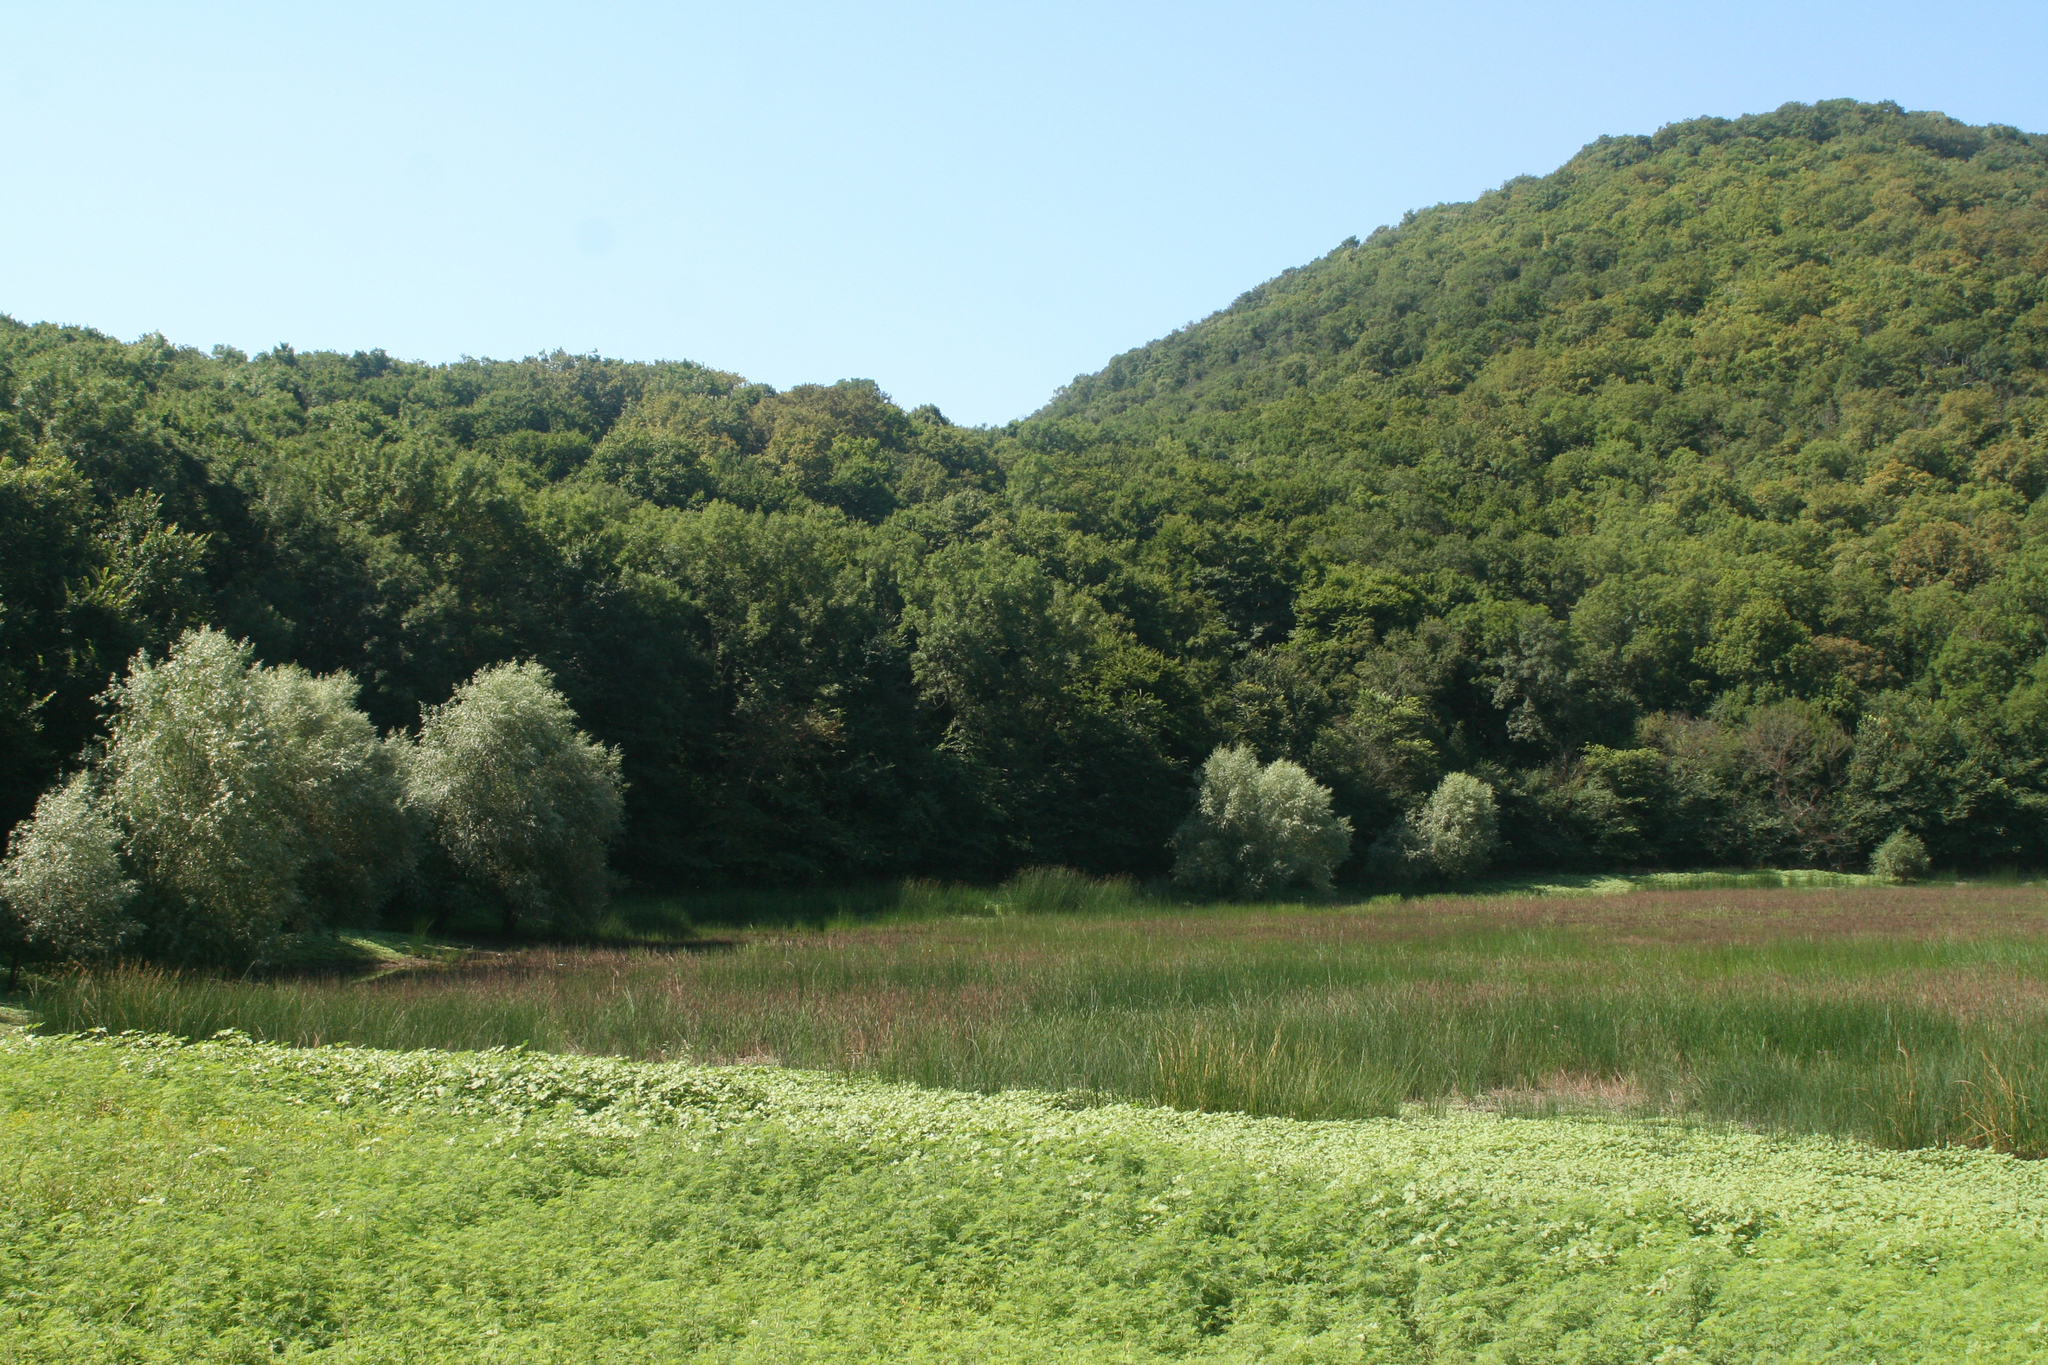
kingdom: Plantae
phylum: Tracheophyta
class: Liliopsida
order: Poales
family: Cyperaceae
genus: Schoenoplectus
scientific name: Schoenoplectus lacustris
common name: Common club-rush
